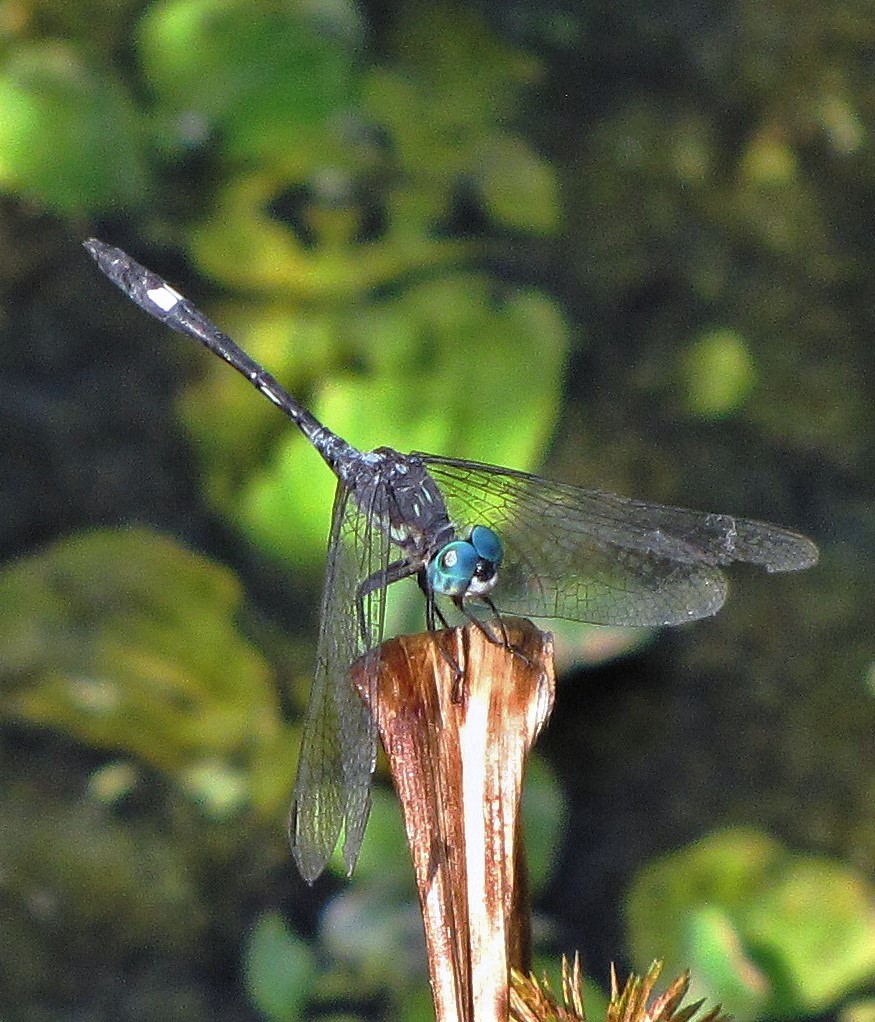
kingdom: Animalia
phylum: Arthropoda
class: Insecta
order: Odonata
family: Libellulidae
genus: Micrathyria
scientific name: Micrathyria longifasciata
